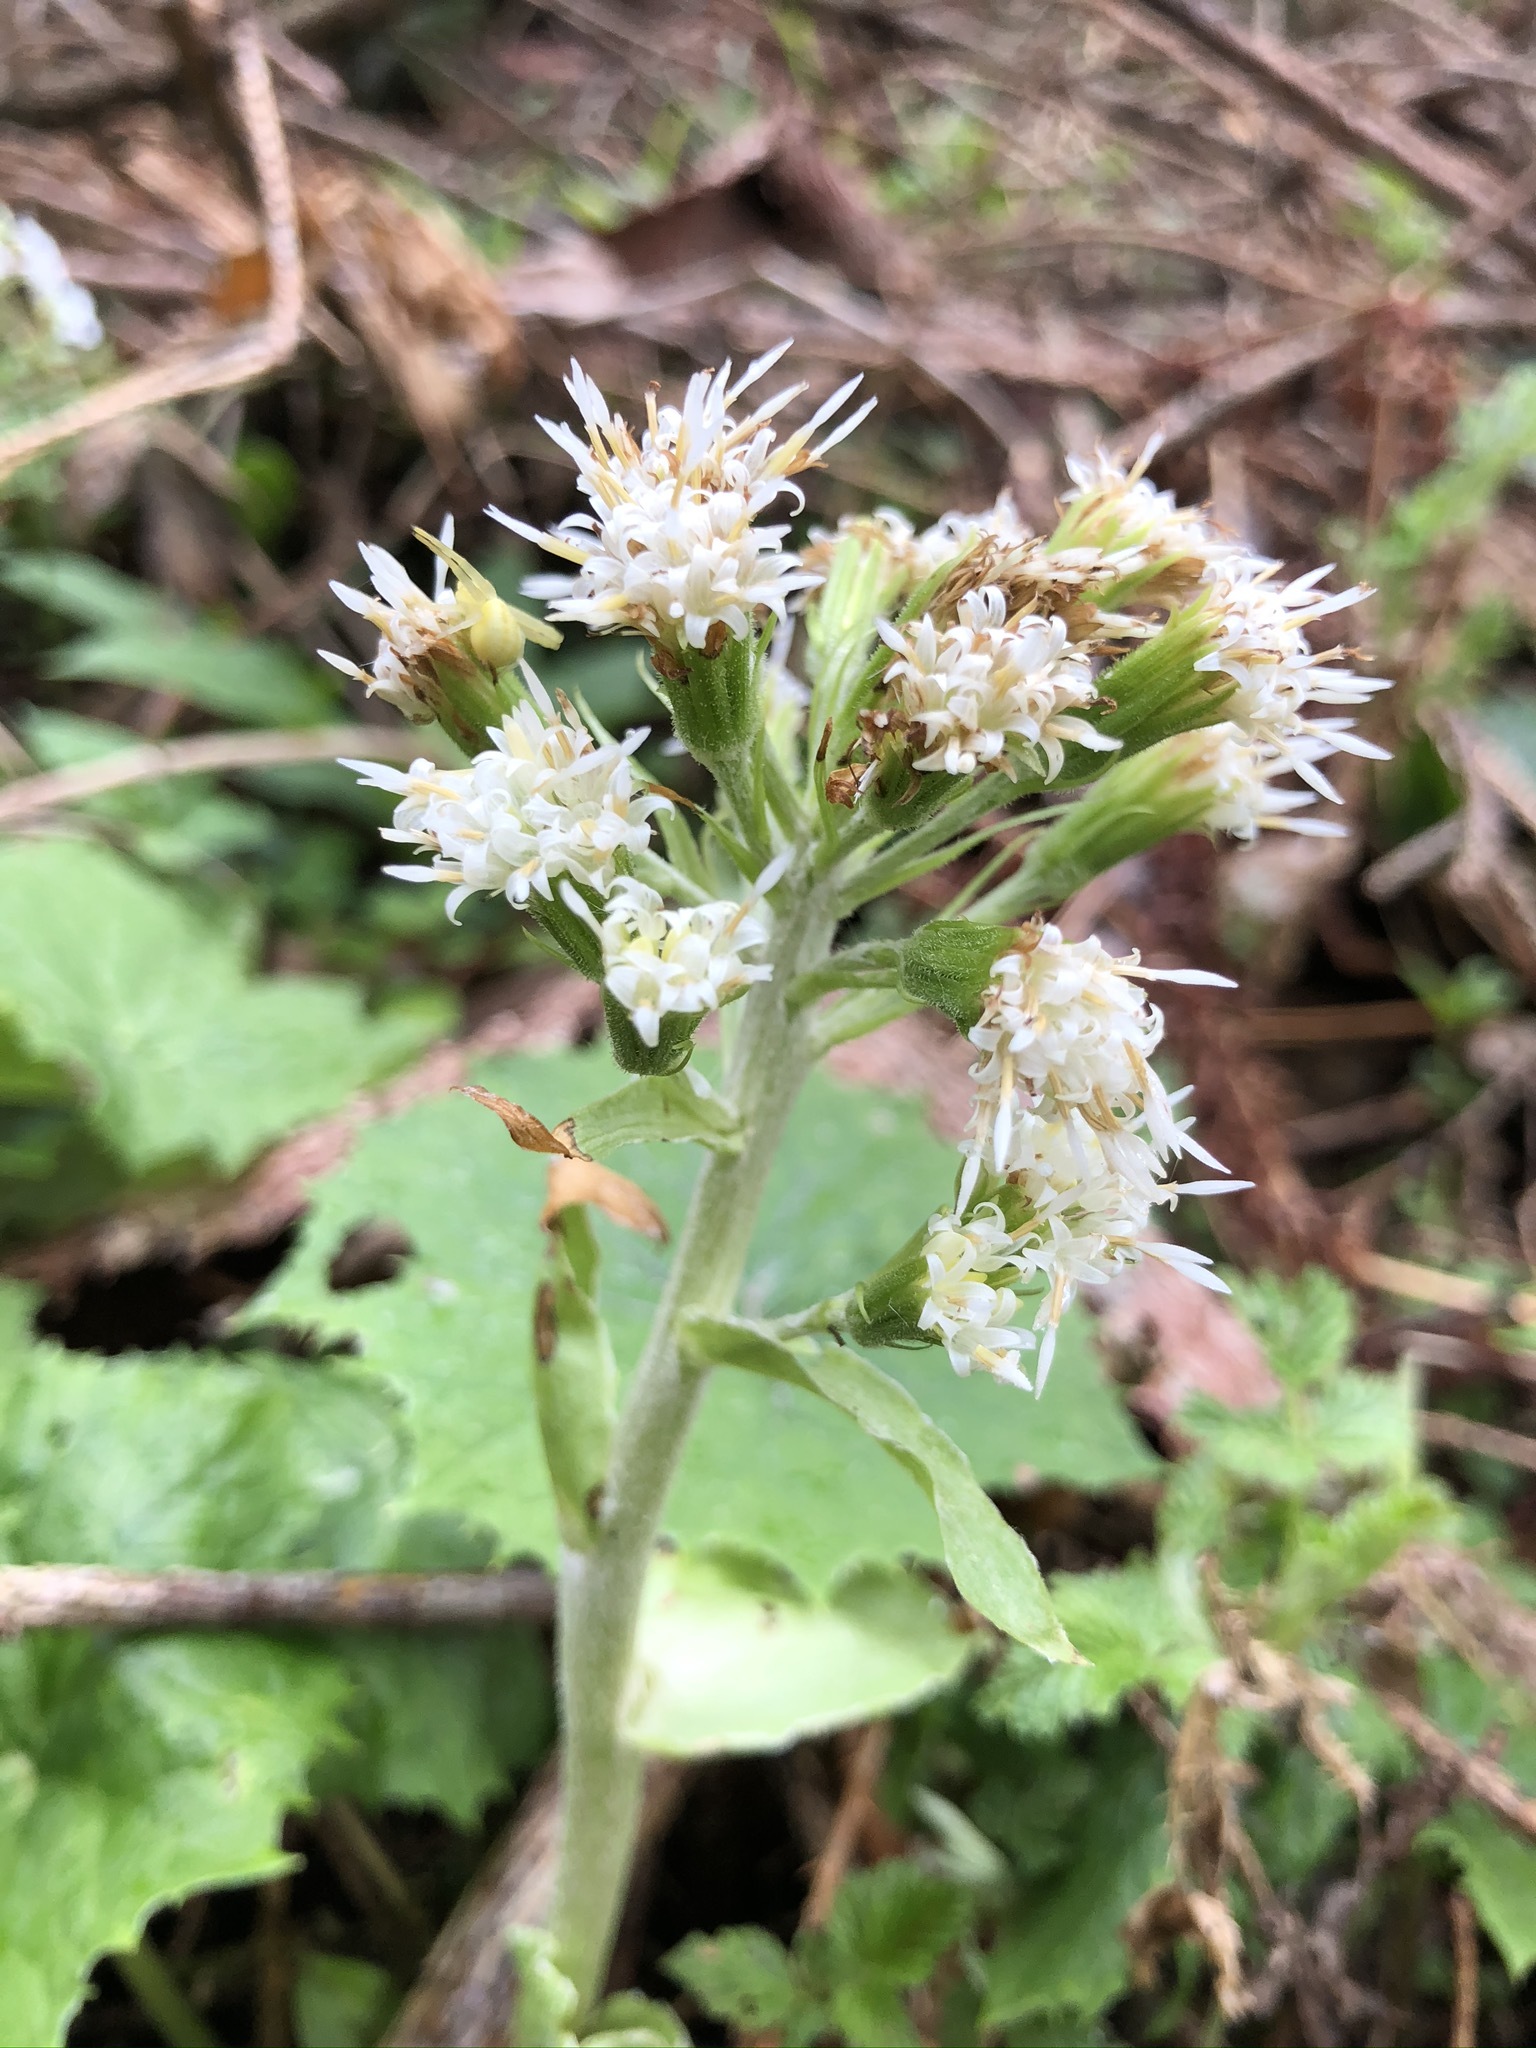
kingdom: Plantae
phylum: Tracheophyta
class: Magnoliopsida
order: Asterales
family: Asteraceae
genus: Petasites
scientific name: Petasites albus
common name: White butterbur
